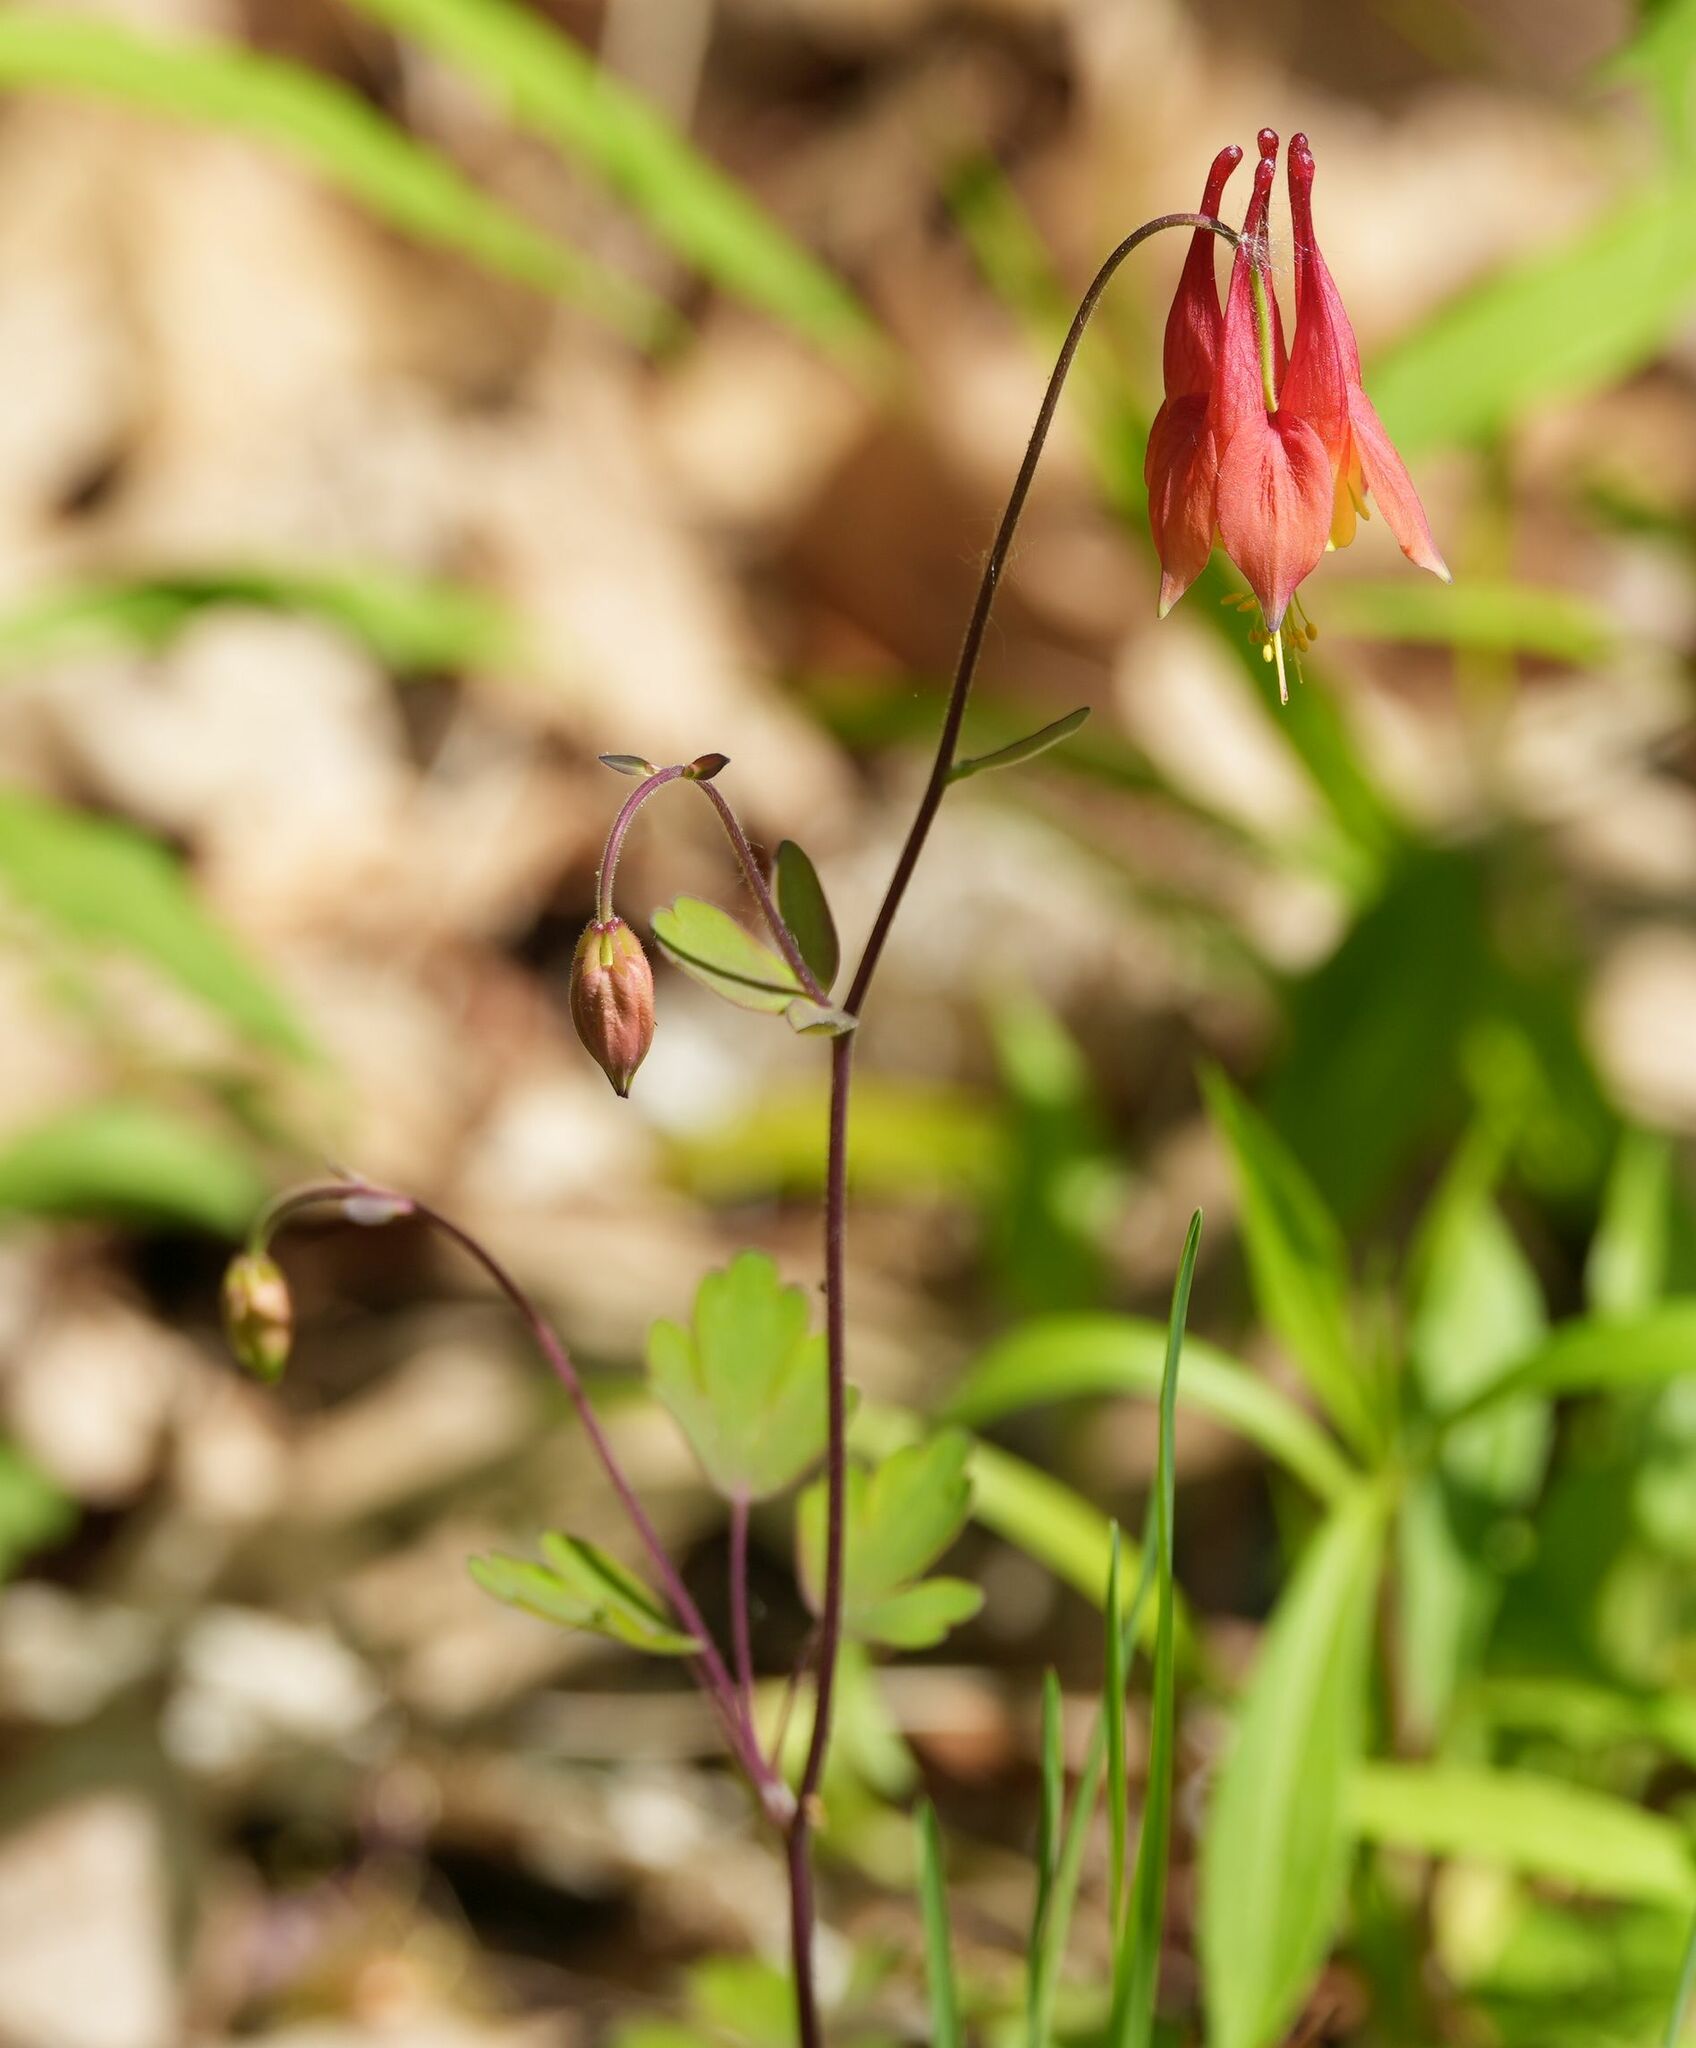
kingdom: Plantae
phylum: Tracheophyta
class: Magnoliopsida
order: Ranunculales
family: Ranunculaceae
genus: Aquilegia
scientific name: Aquilegia canadensis
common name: American columbine
